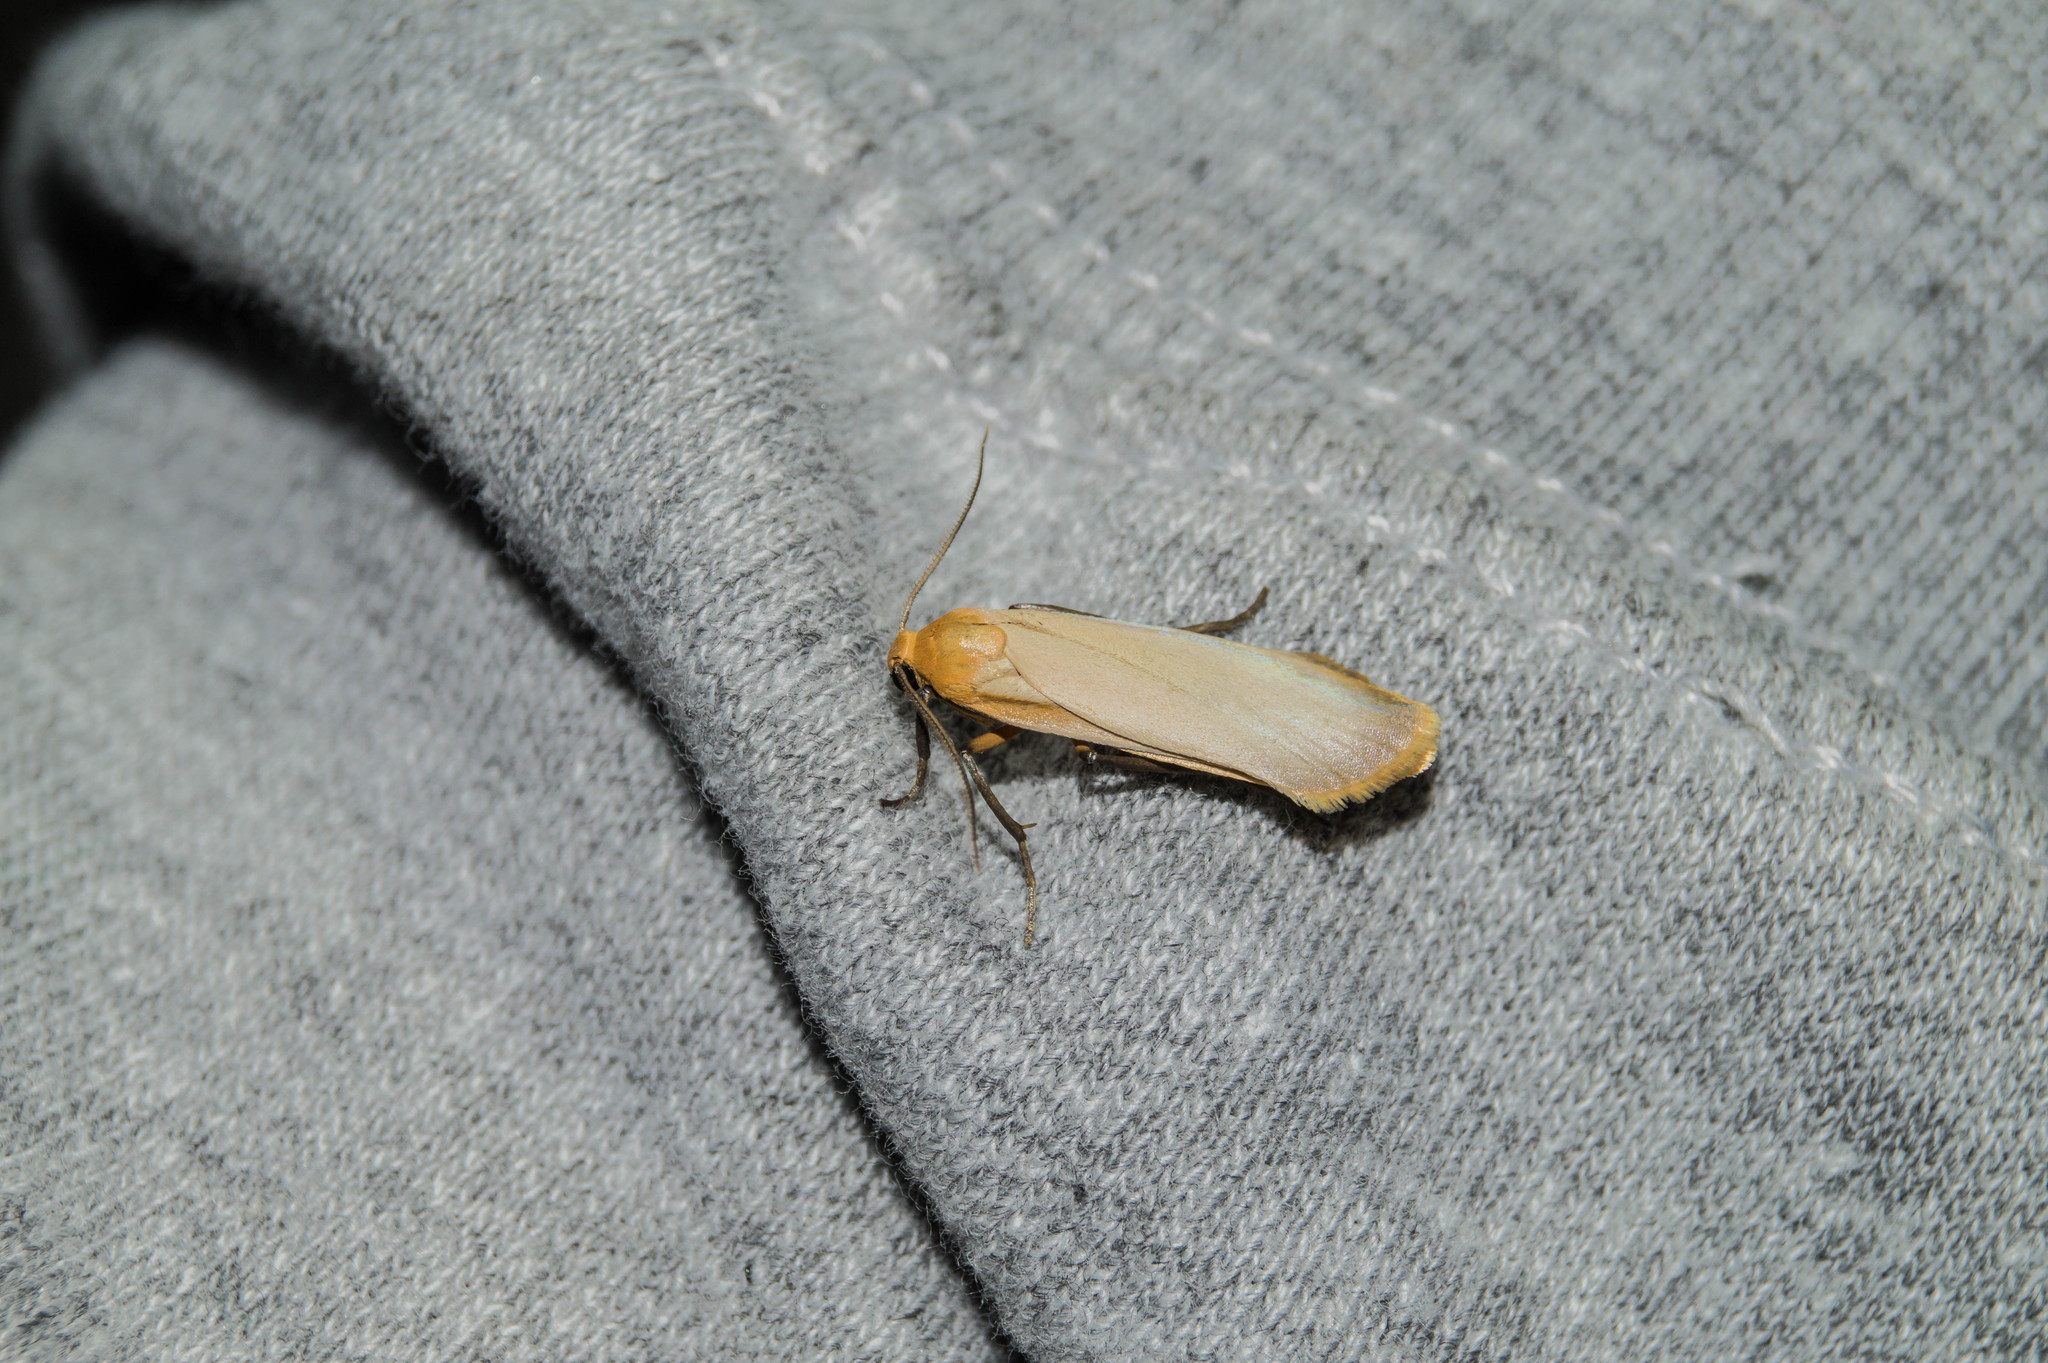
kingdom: Animalia
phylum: Arthropoda
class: Insecta
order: Lepidoptera
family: Erebidae
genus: Katha
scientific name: Katha depressa
